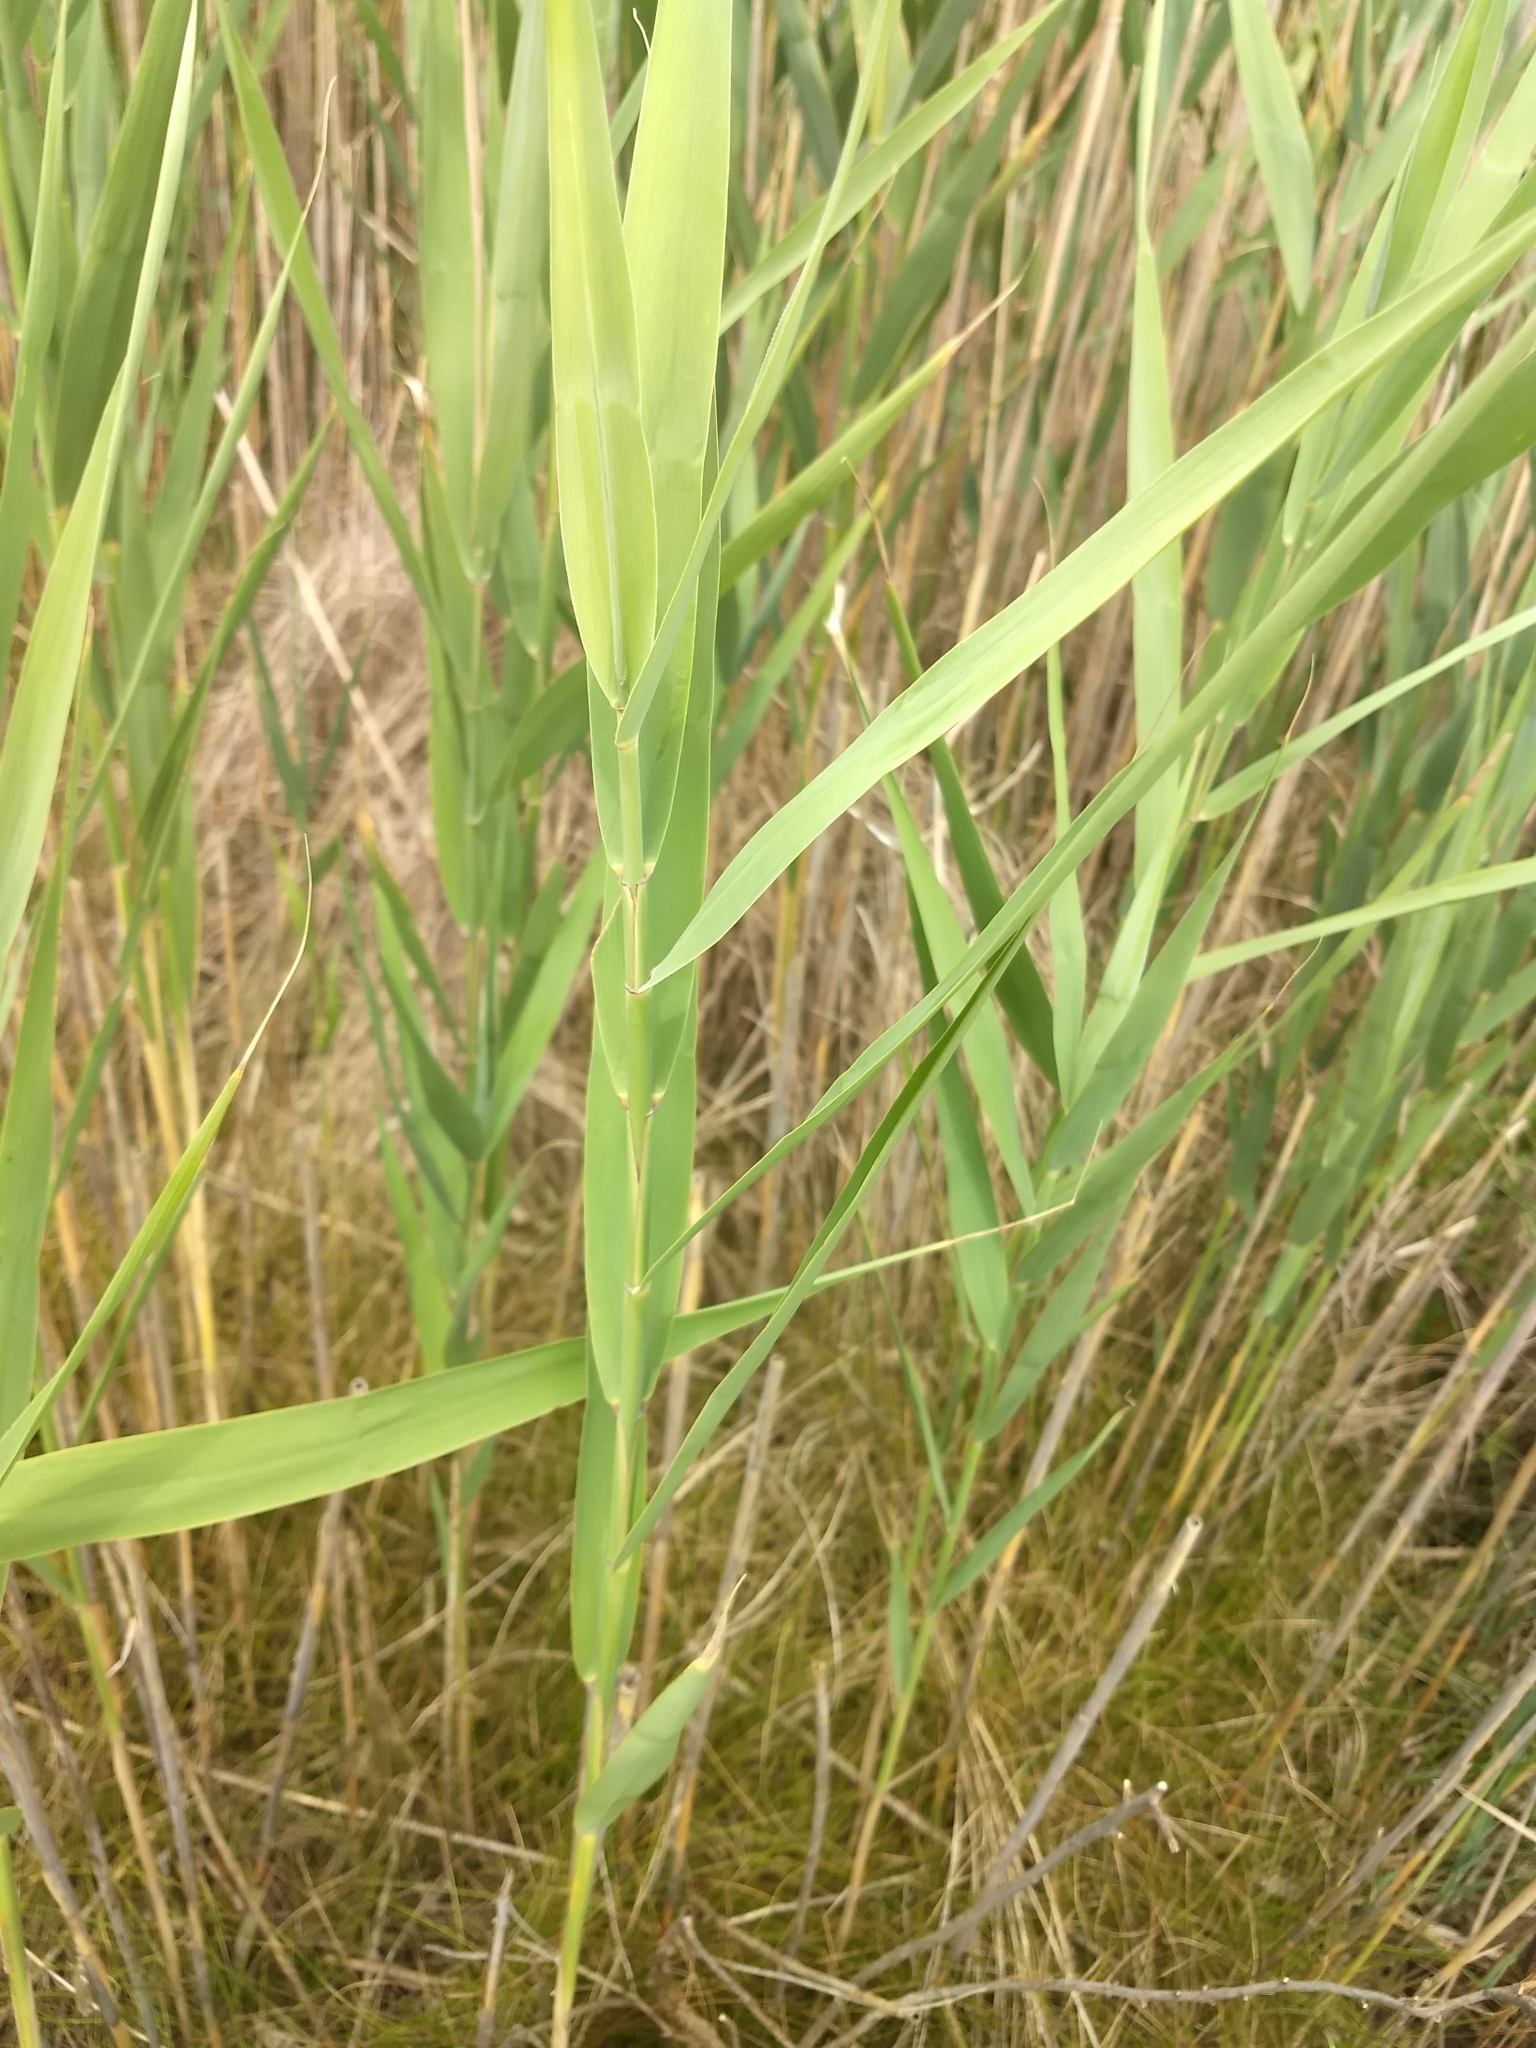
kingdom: Plantae
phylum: Tracheophyta
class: Liliopsida
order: Poales
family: Poaceae
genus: Phragmites
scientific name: Phragmites australis
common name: Common reed
